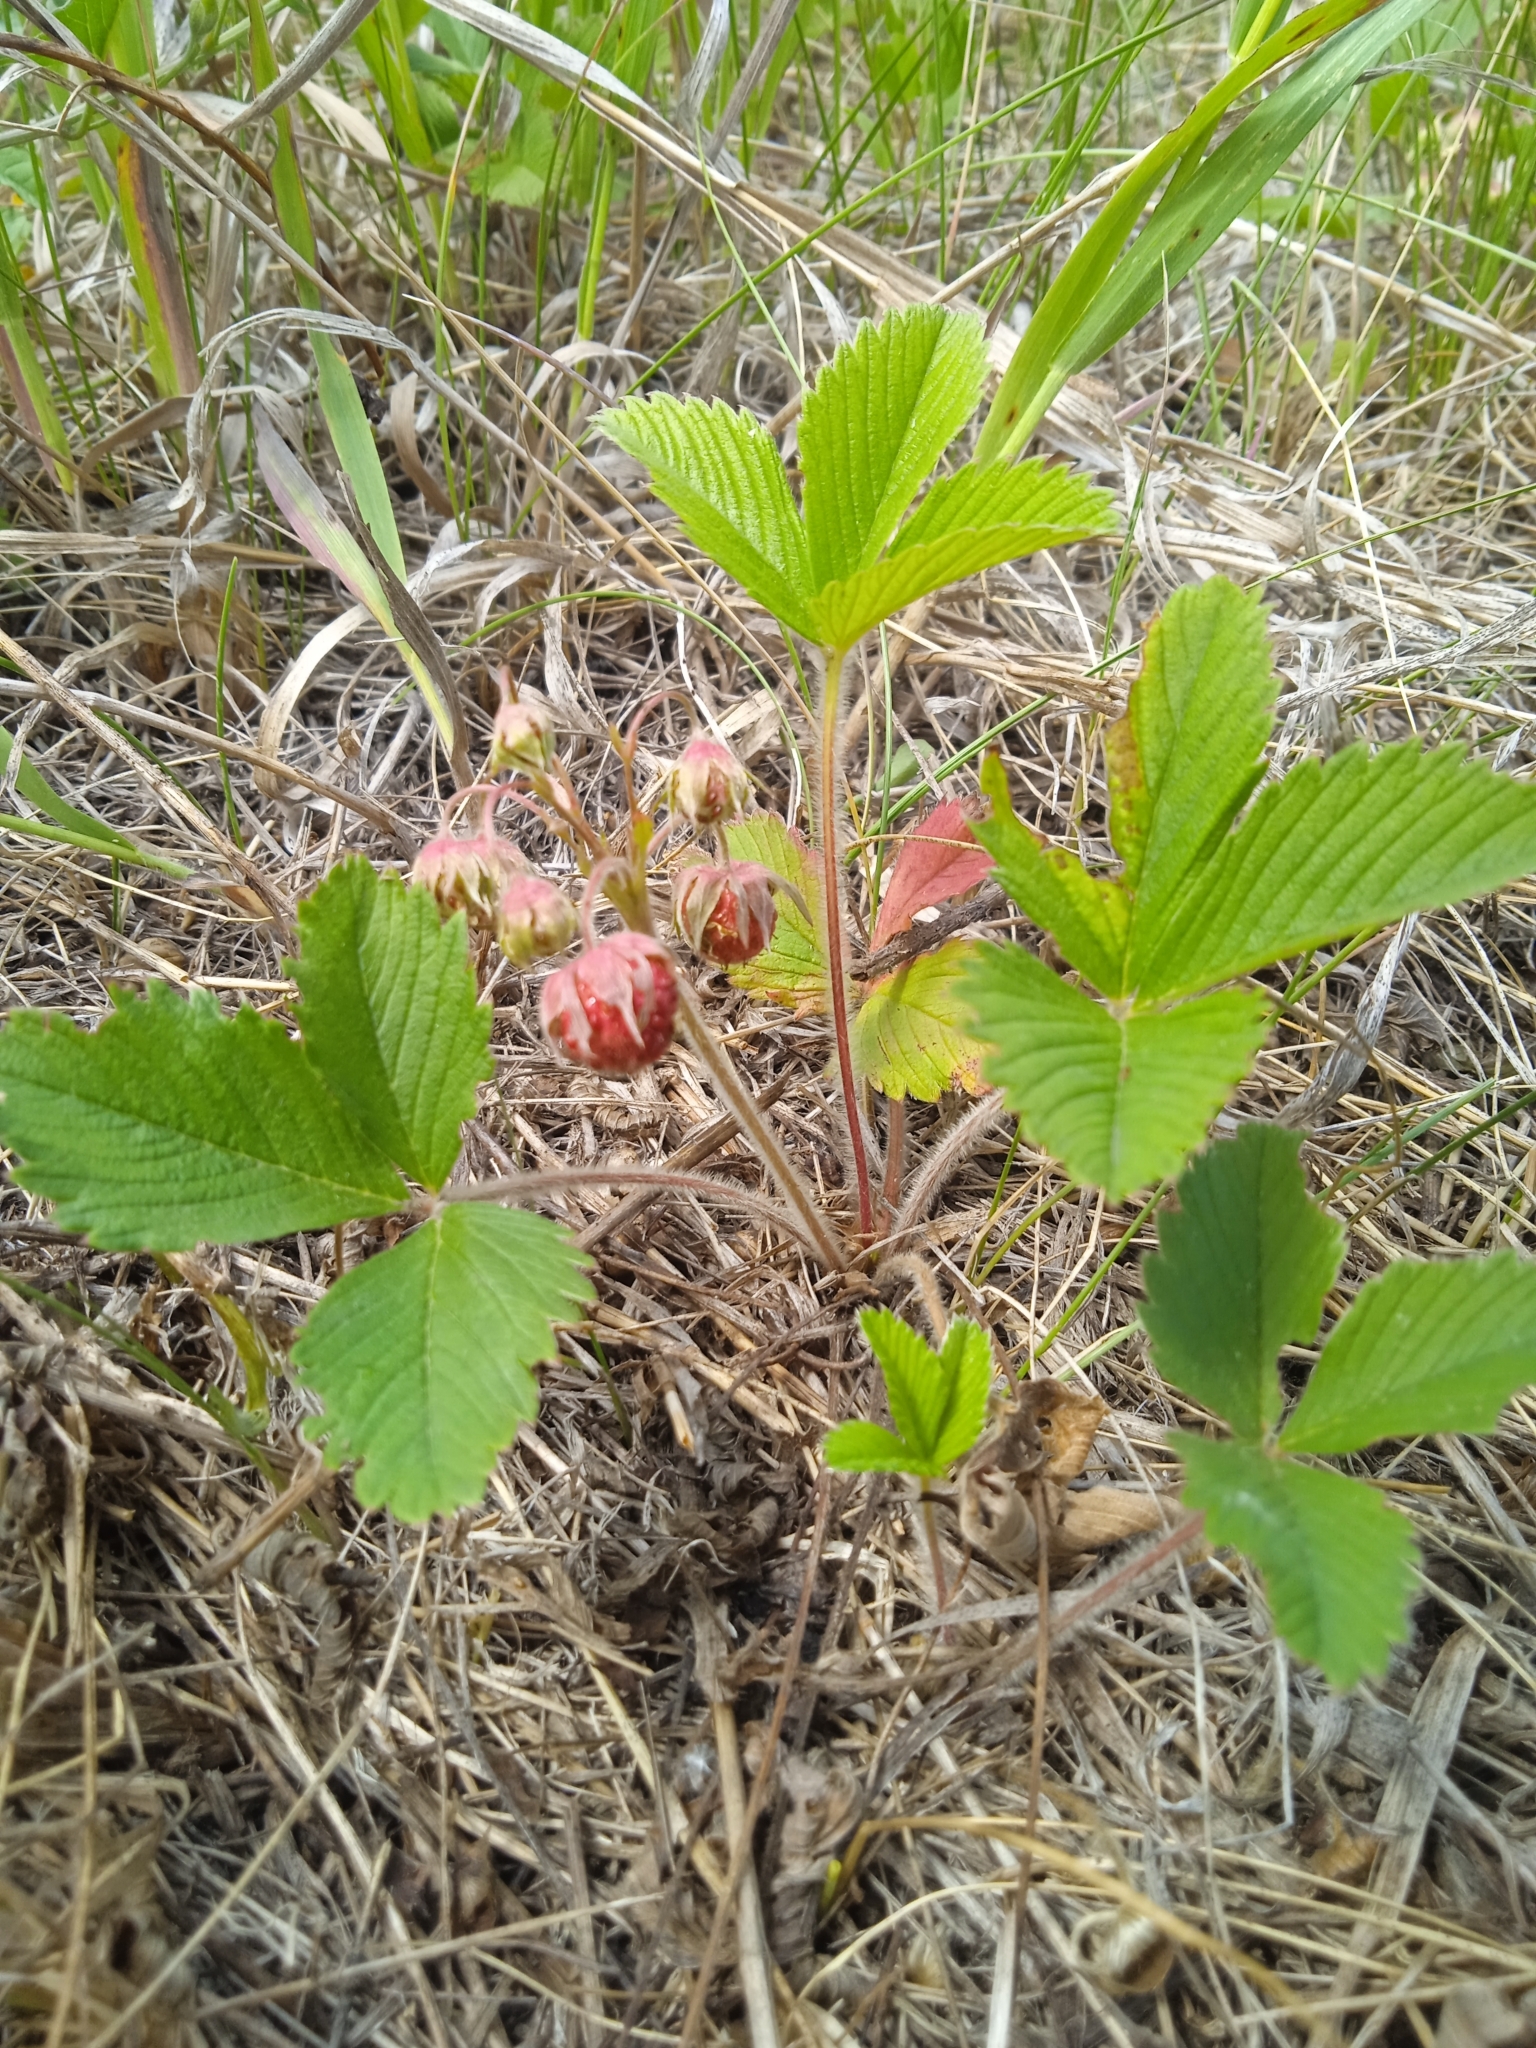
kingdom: Plantae
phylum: Tracheophyta
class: Magnoliopsida
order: Rosales
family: Rosaceae
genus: Fragaria
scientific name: Fragaria viridis
